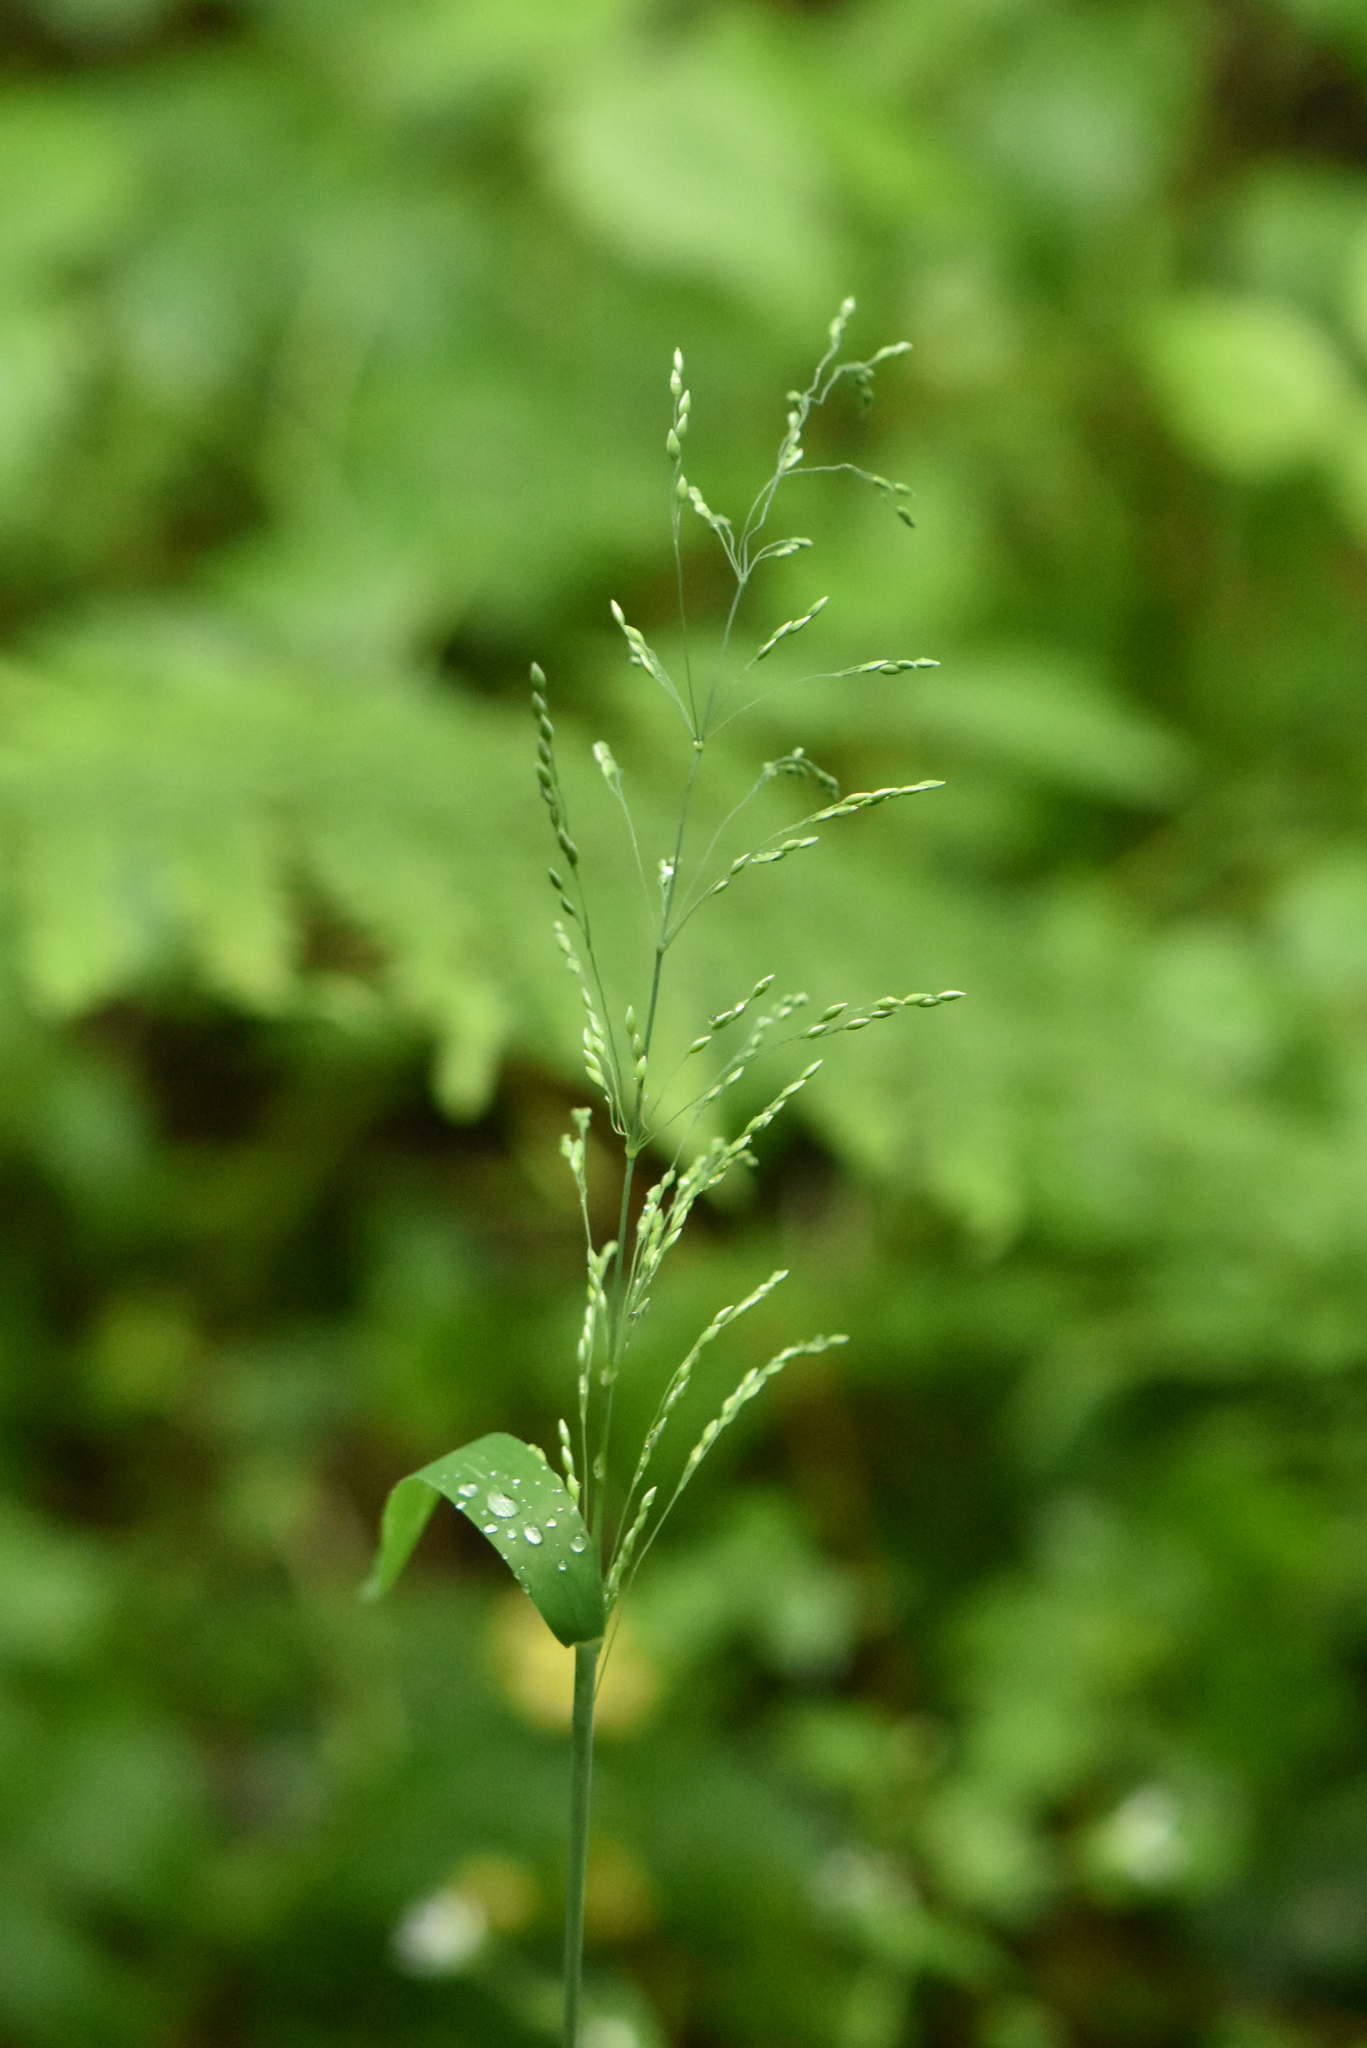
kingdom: Plantae
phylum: Tracheophyta
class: Liliopsida
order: Poales
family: Poaceae
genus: Milium
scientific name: Milium effusum
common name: Wood millet
